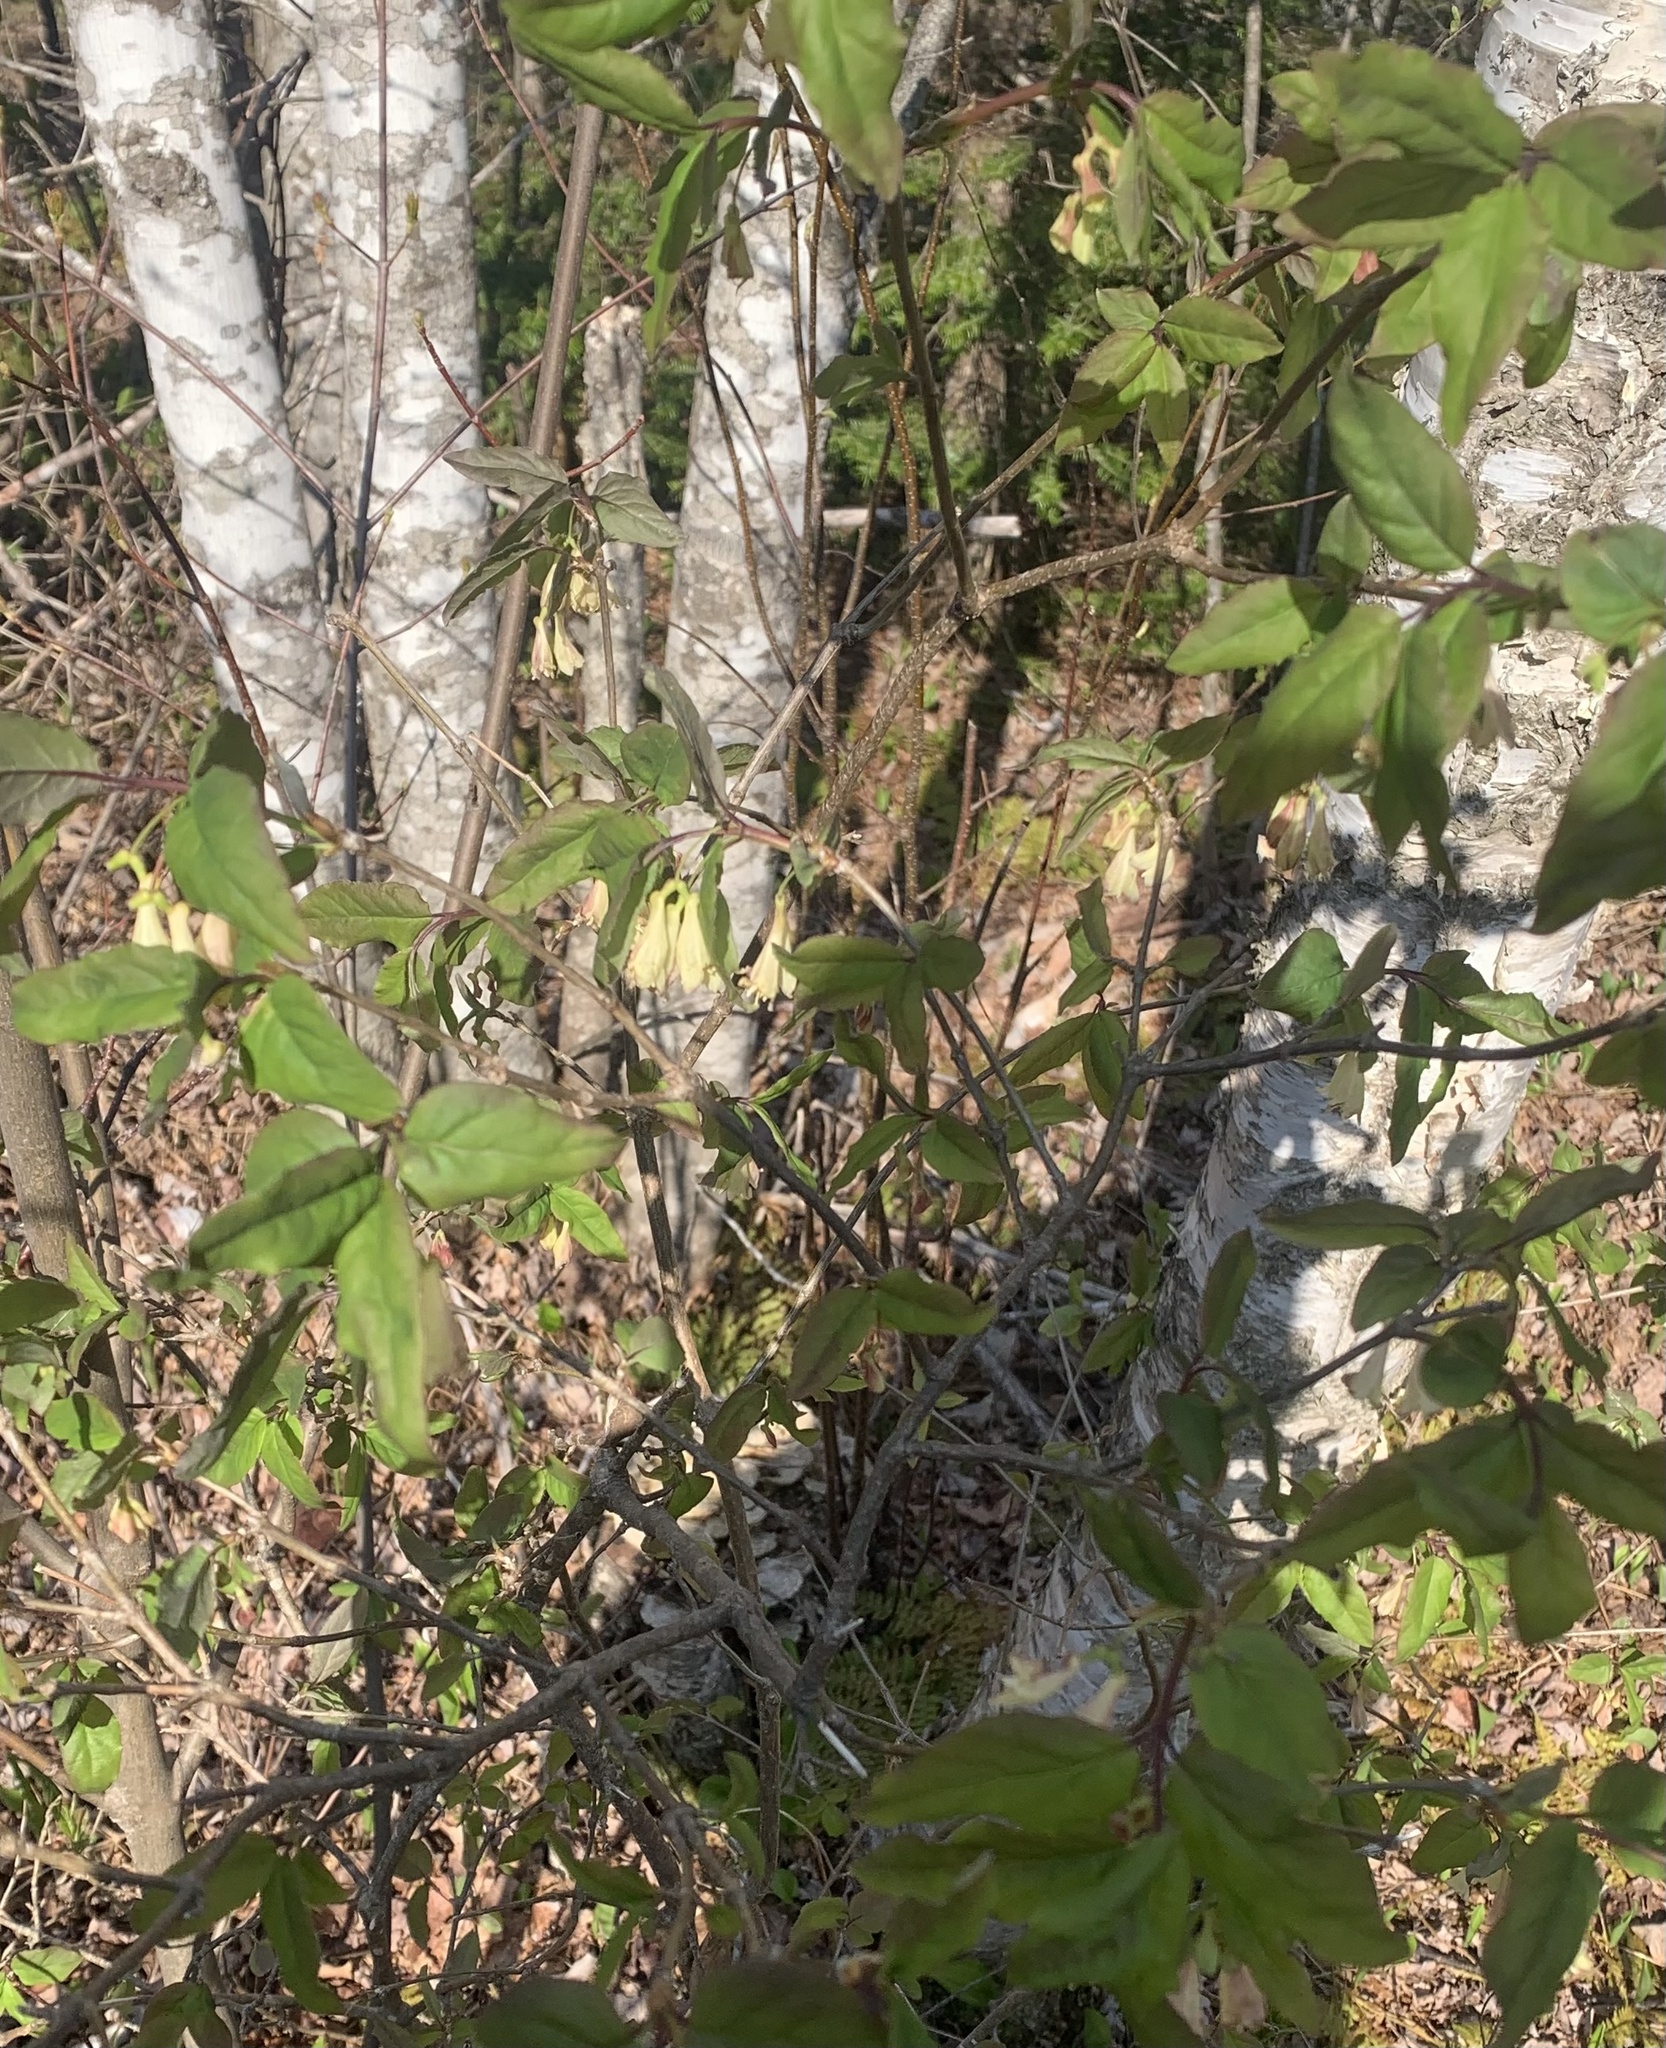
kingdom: Plantae
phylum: Tracheophyta
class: Magnoliopsida
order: Dipsacales
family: Caprifoliaceae
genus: Lonicera
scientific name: Lonicera canadensis
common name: American fly-honeysuckle
